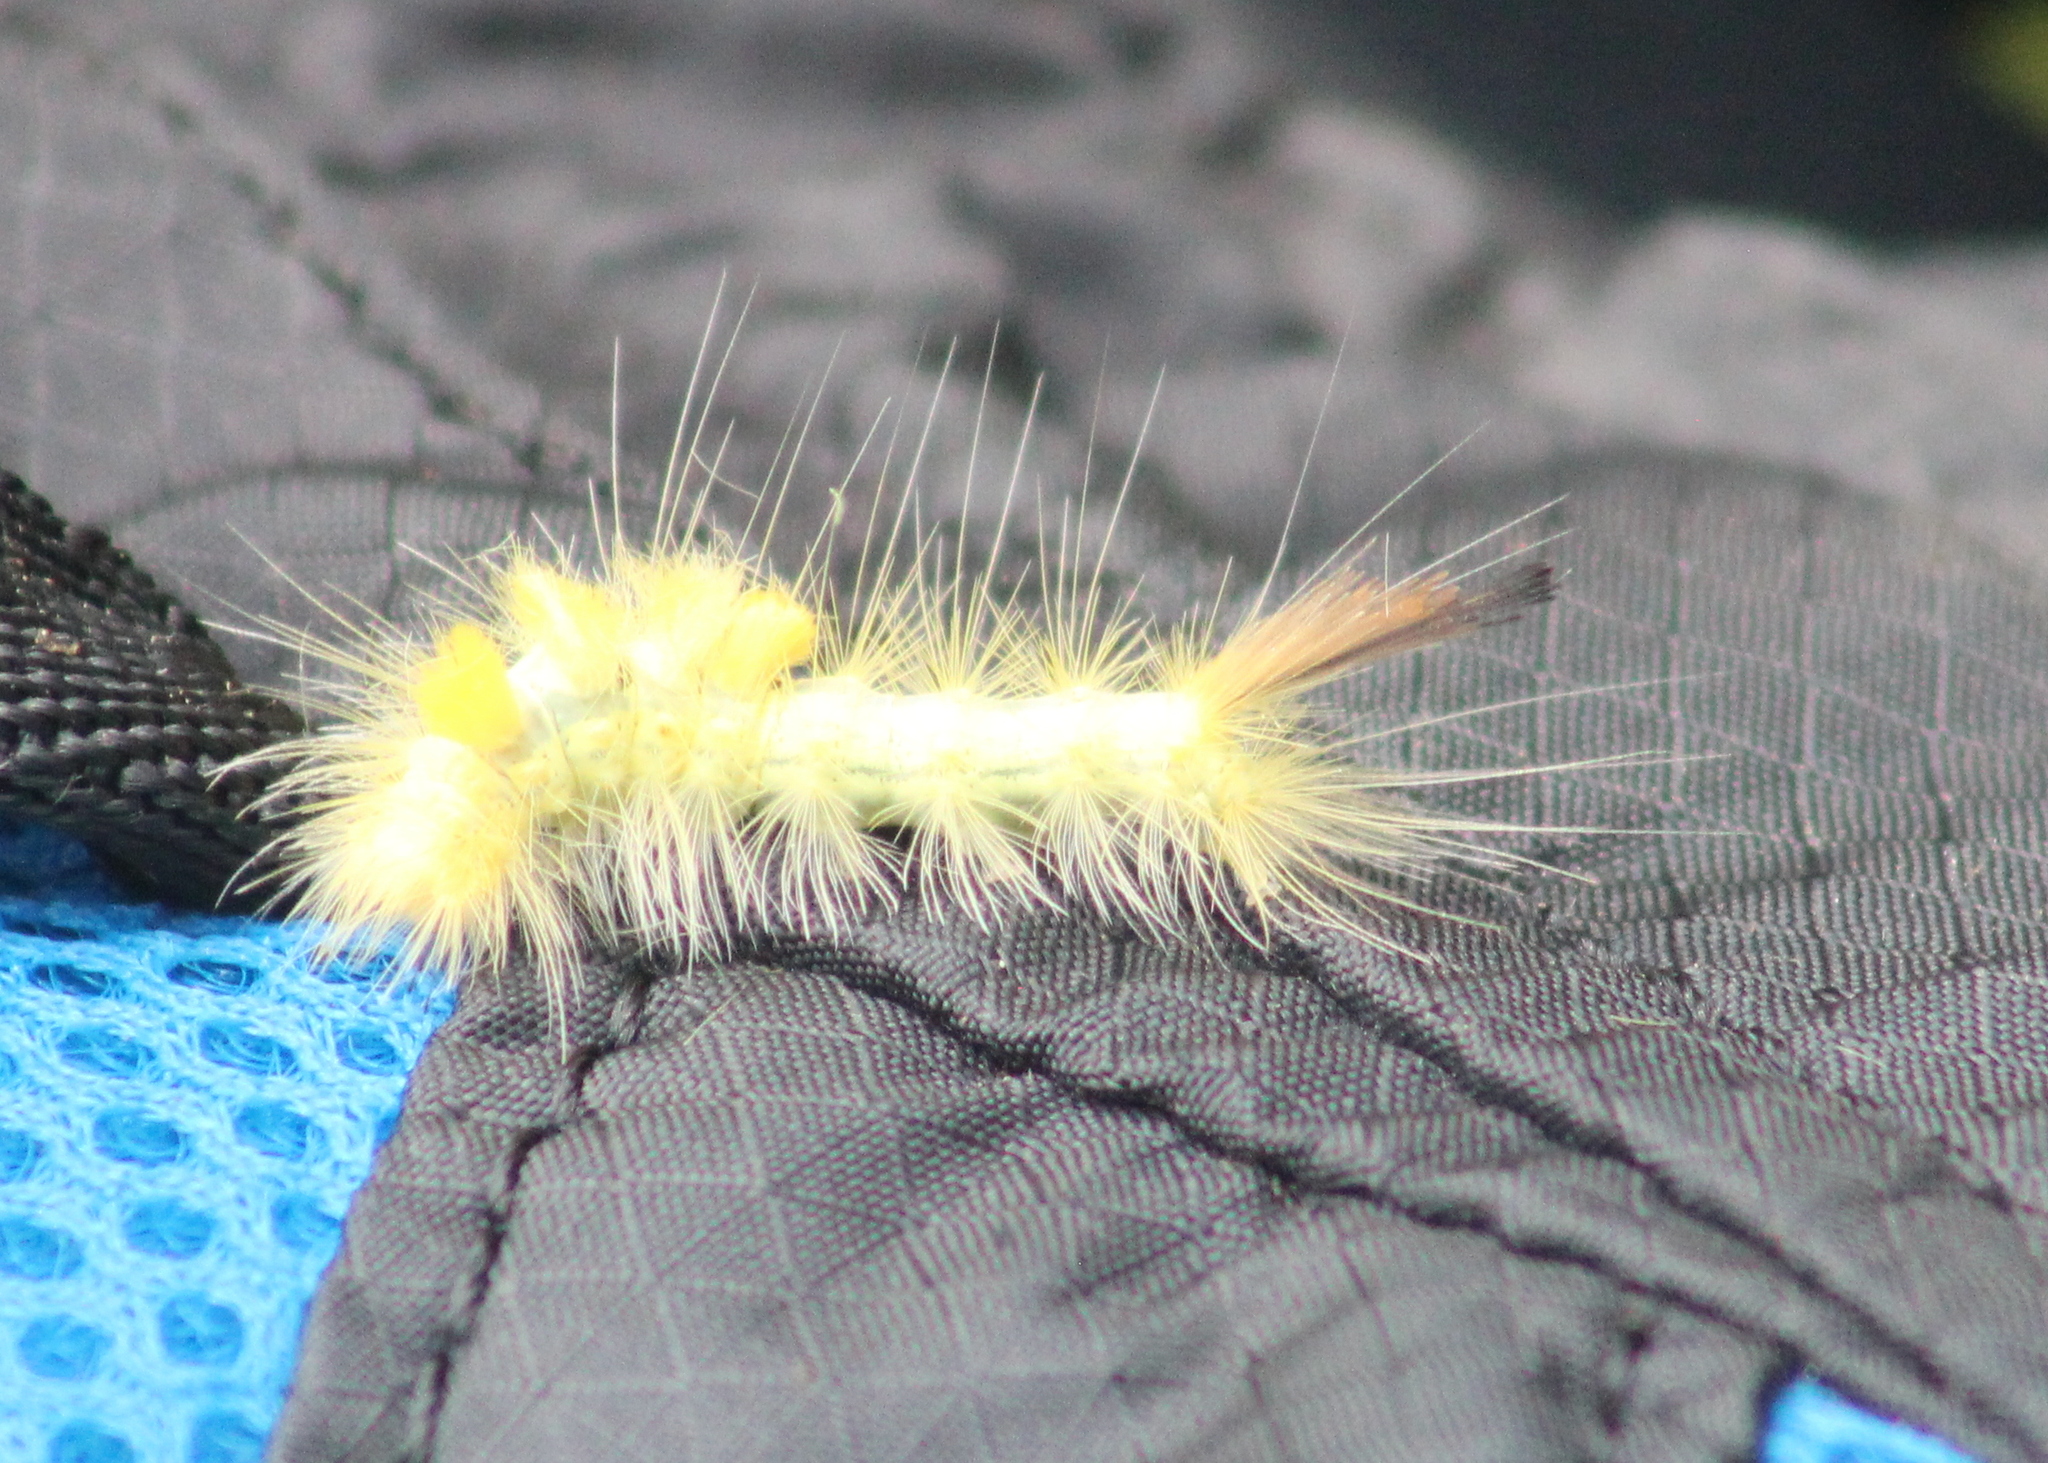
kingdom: Animalia
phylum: Arthropoda
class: Insecta
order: Lepidoptera
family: Erebidae
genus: Orgyia
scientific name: Orgyia definita
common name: Definite tussock moth
